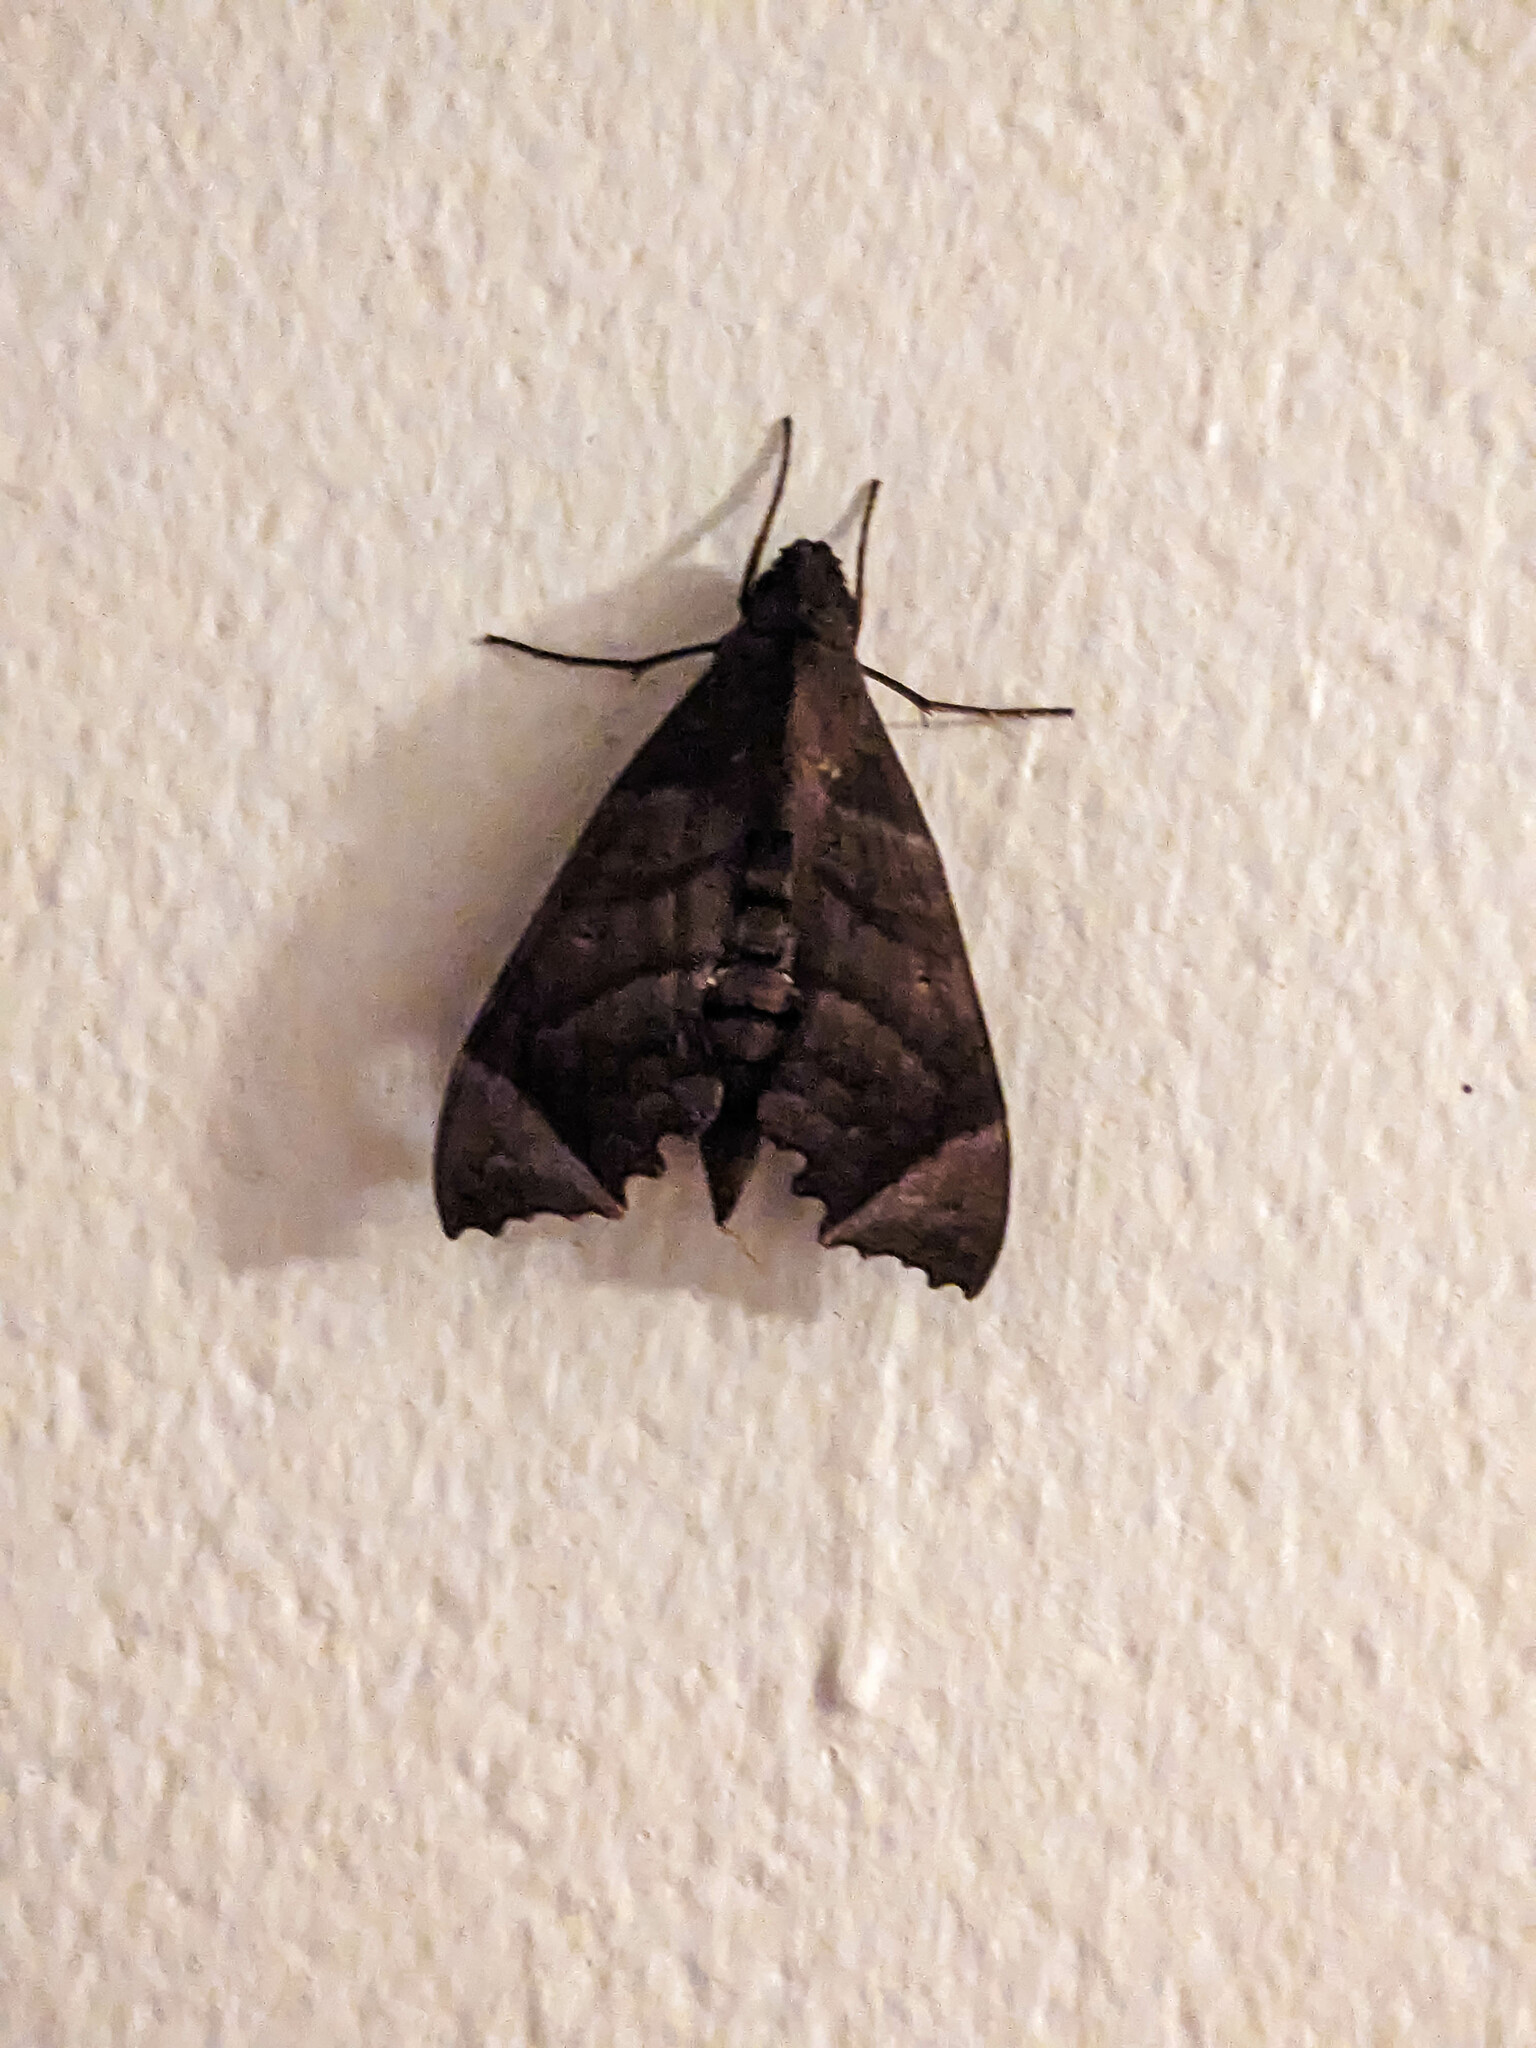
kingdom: Animalia
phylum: Arthropoda
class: Insecta
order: Lepidoptera
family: Sphingidae
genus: Aleuron
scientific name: Aleuron carinata
